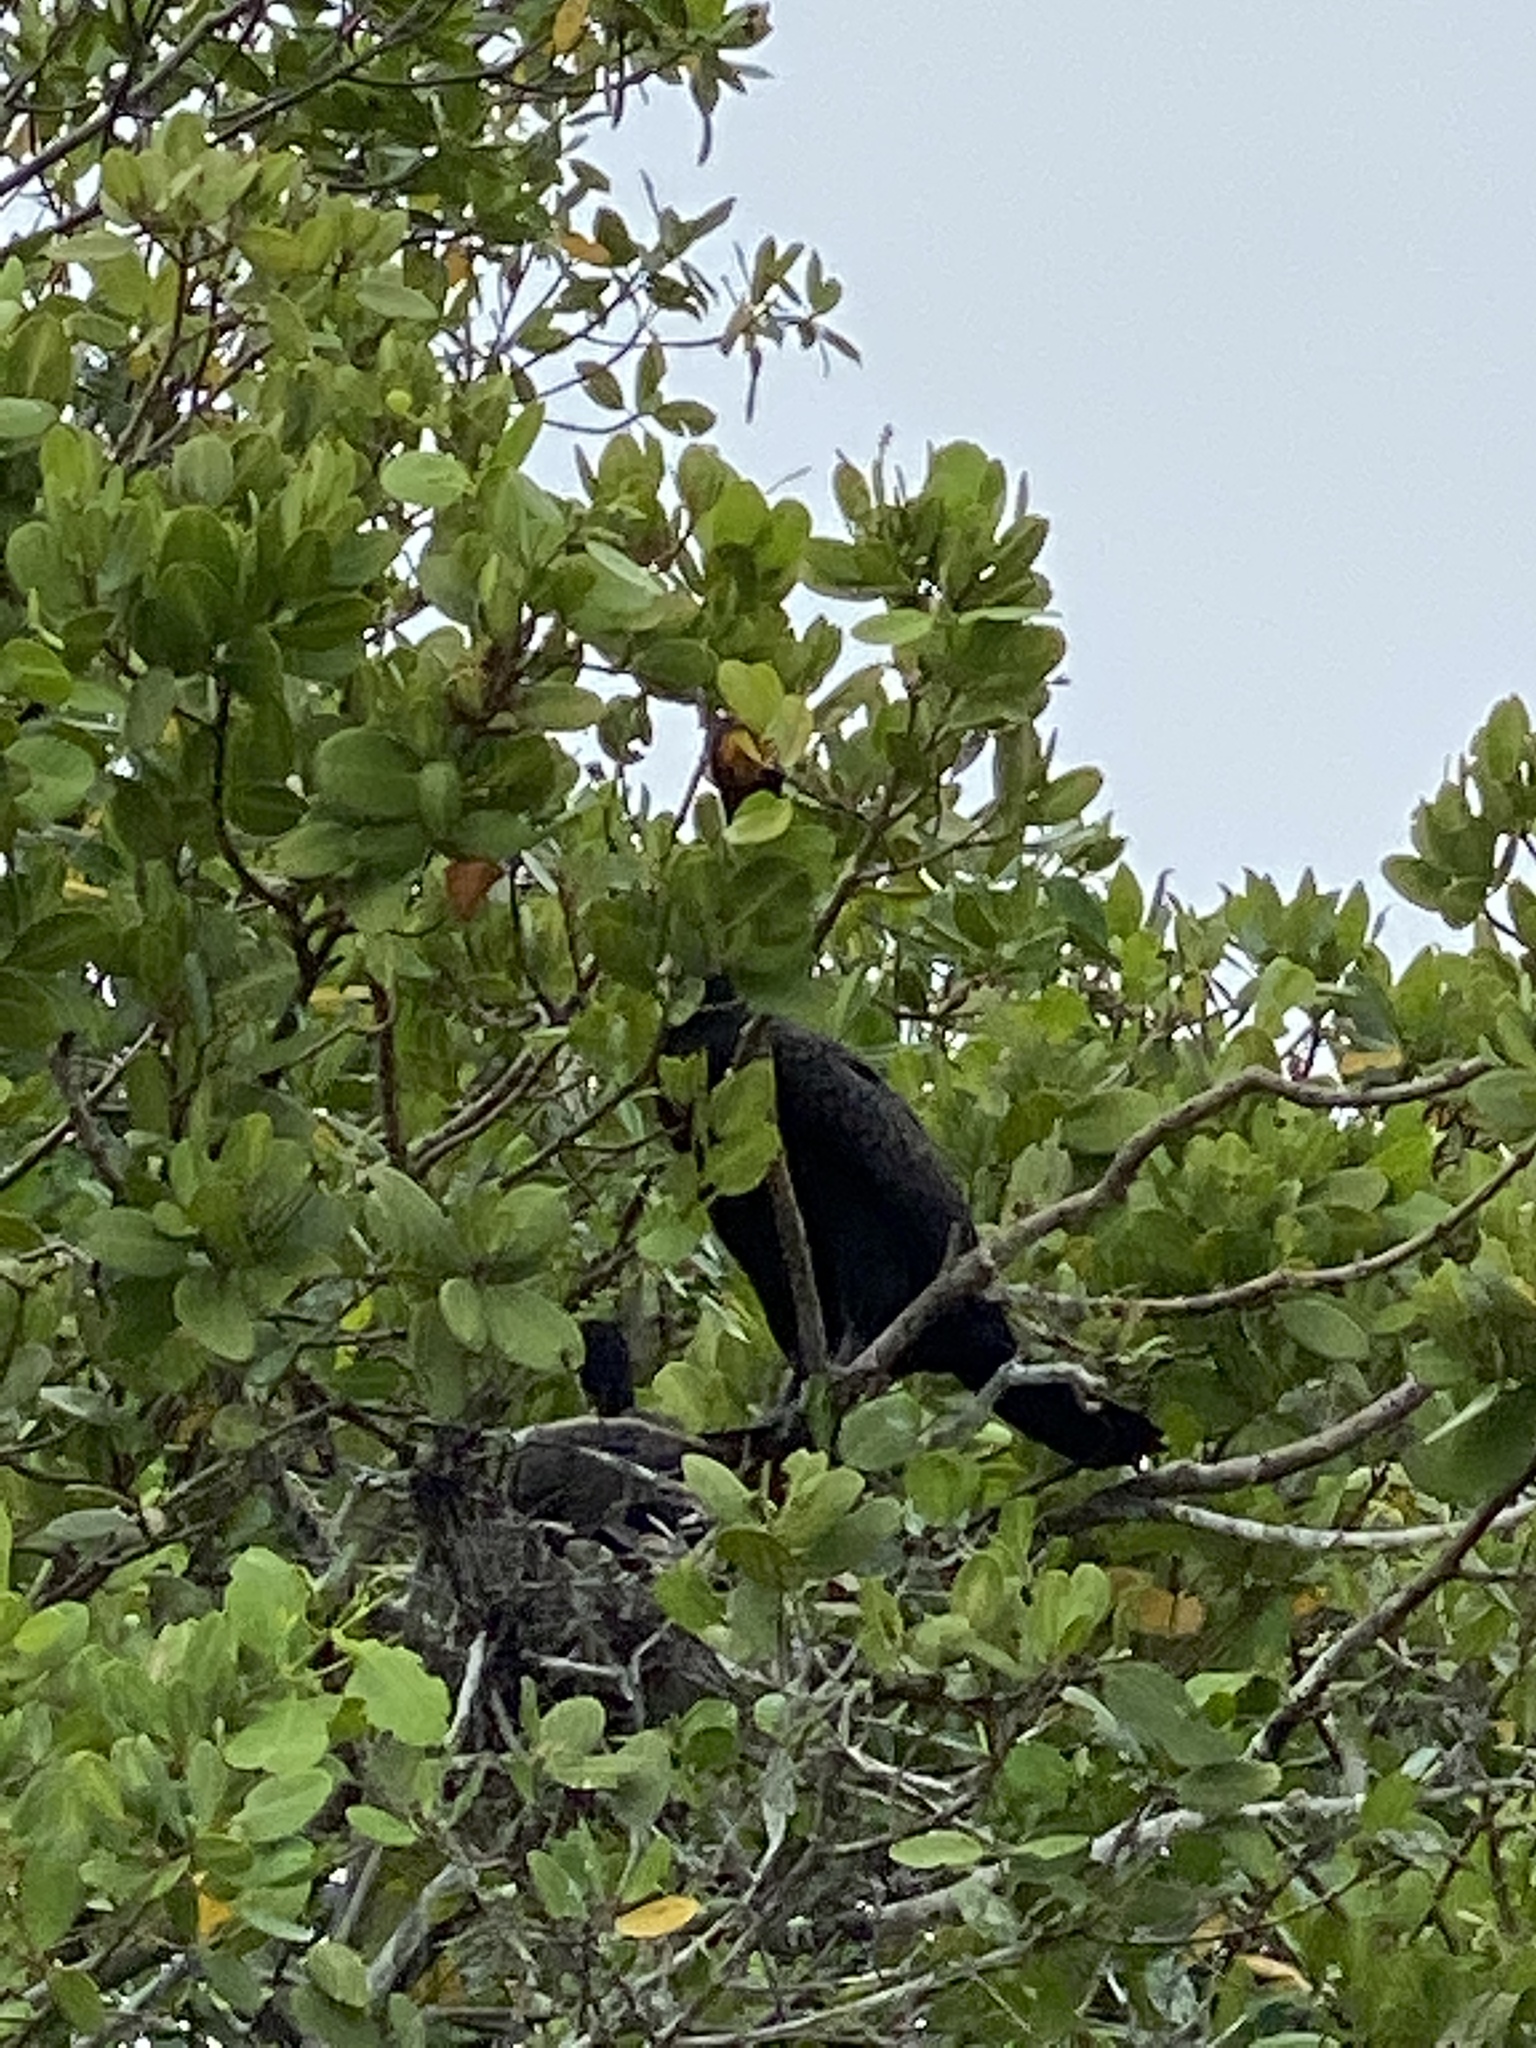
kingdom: Animalia
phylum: Chordata
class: Aves
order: Suliformes
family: Phalacrocoracidae
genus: Phalacrocorax
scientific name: Phalacrocorax auritus
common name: Double-crested cormorant
